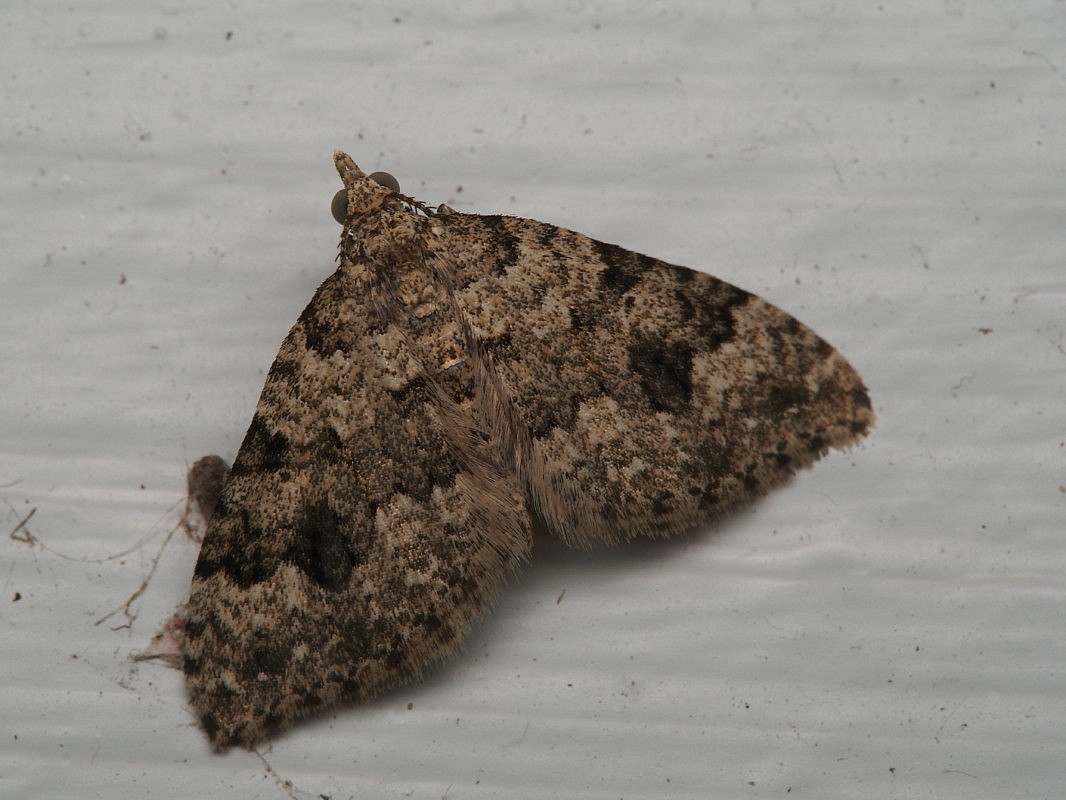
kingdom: Animalia
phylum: Arthropoda
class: Insecta
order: Lepidoptera
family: Geometridae
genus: Helastia
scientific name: Helastia cinerearia
